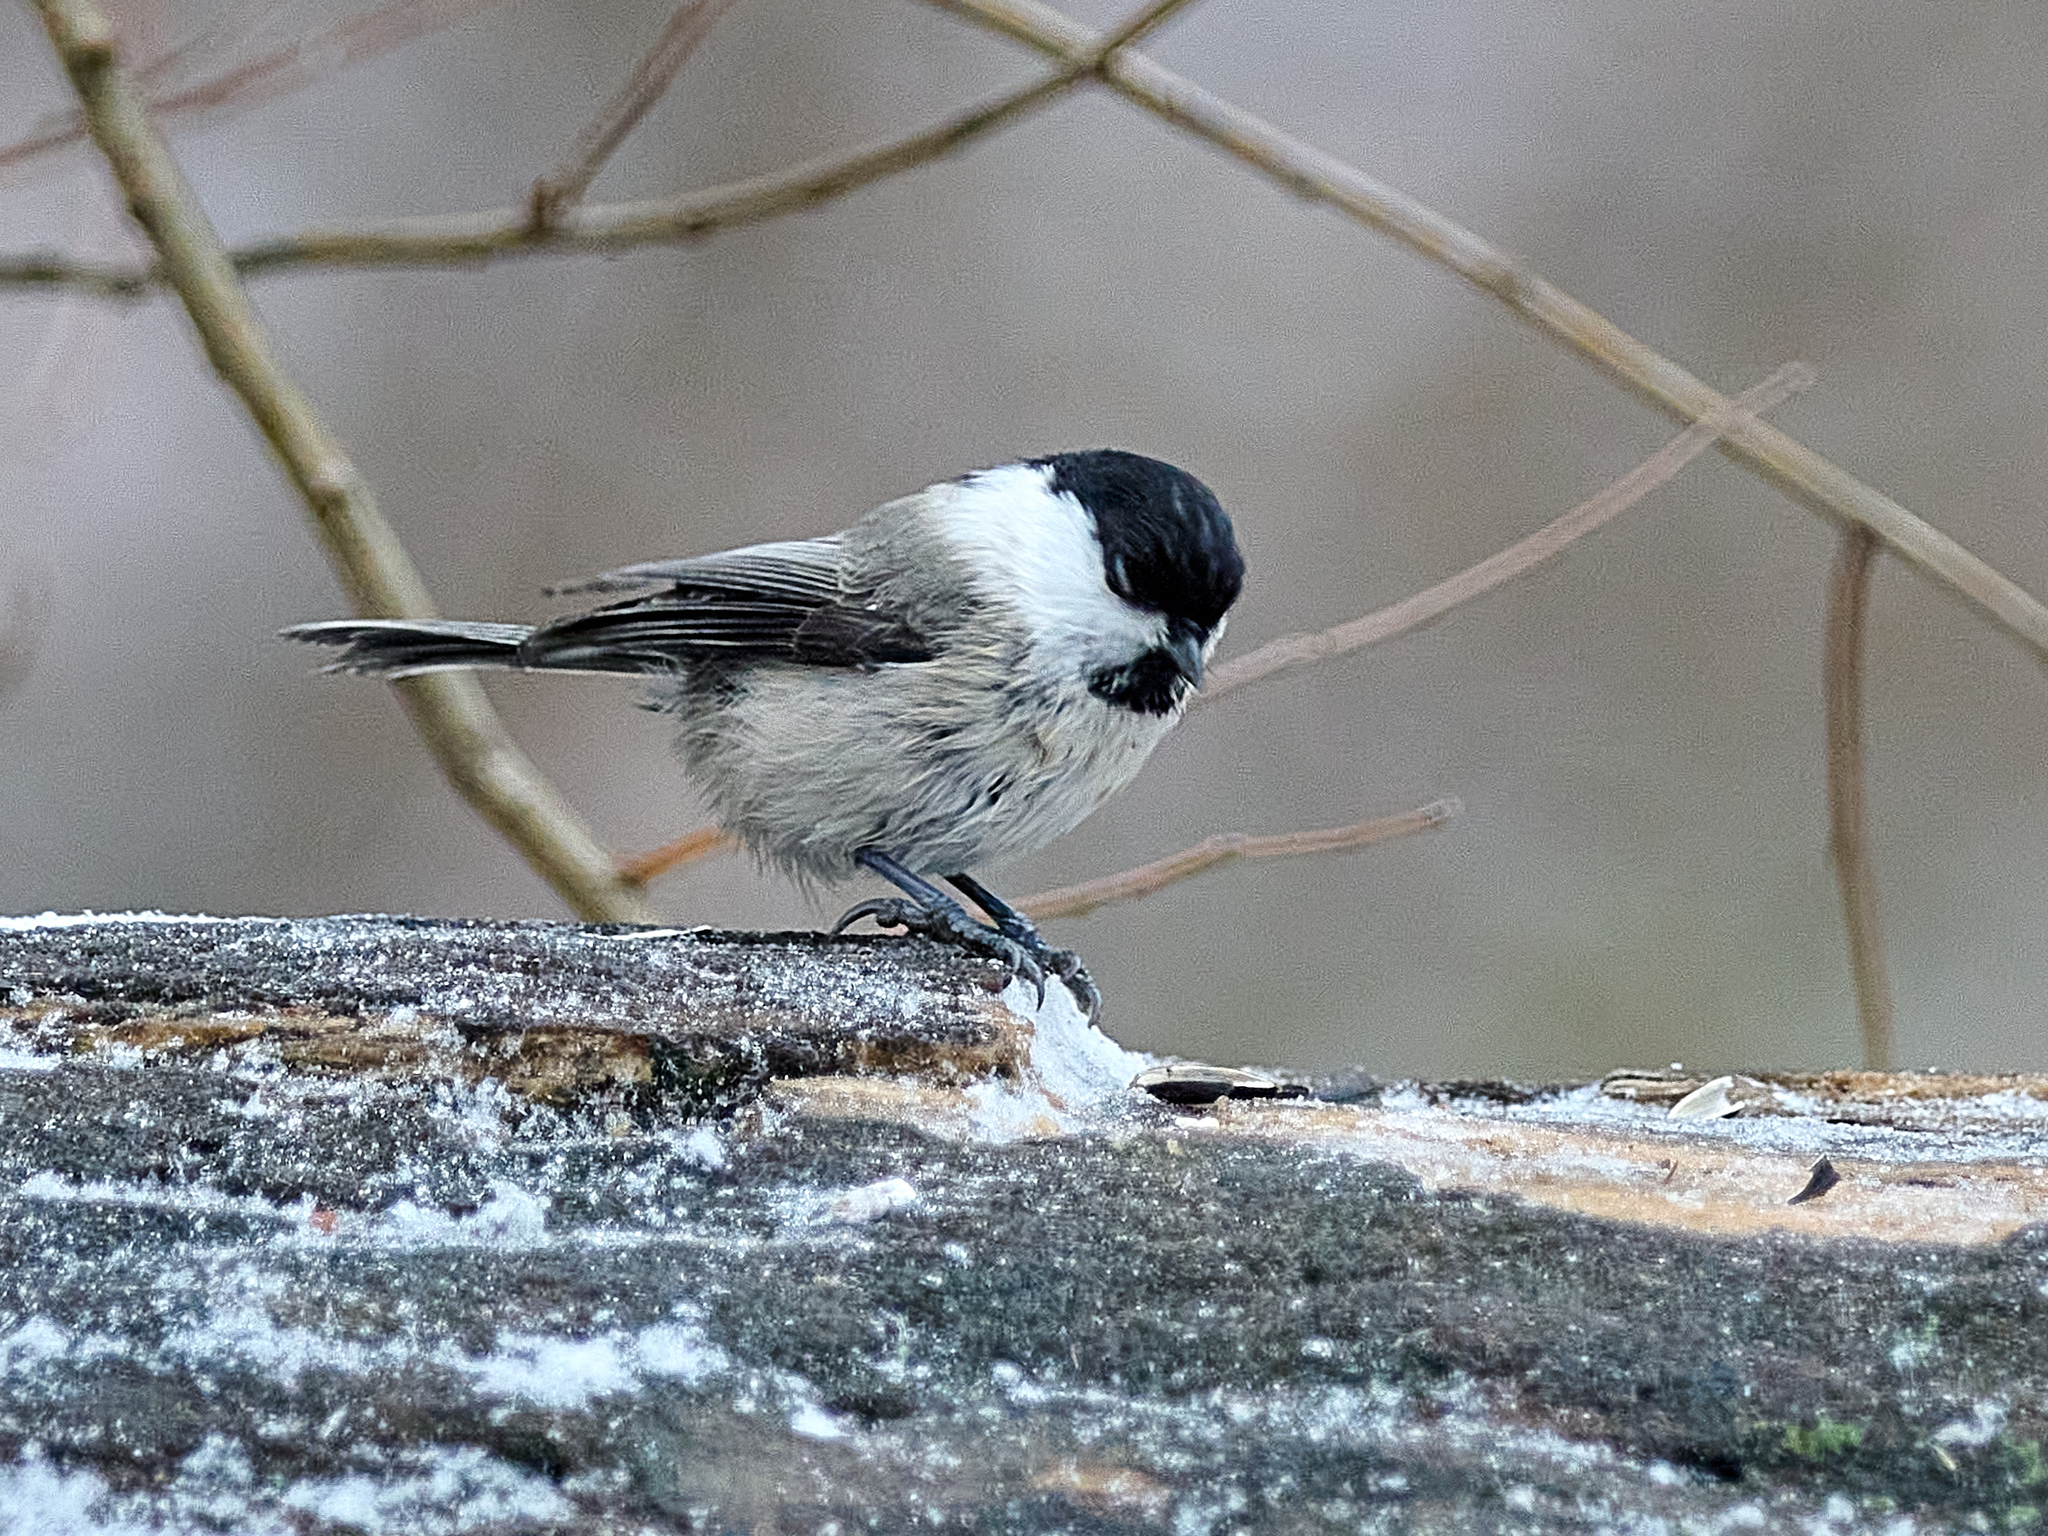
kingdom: Animalia
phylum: Chordata
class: Aves
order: Passeriformes
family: Paridae
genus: Poecile
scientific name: Poecile montanus
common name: Willow tit
